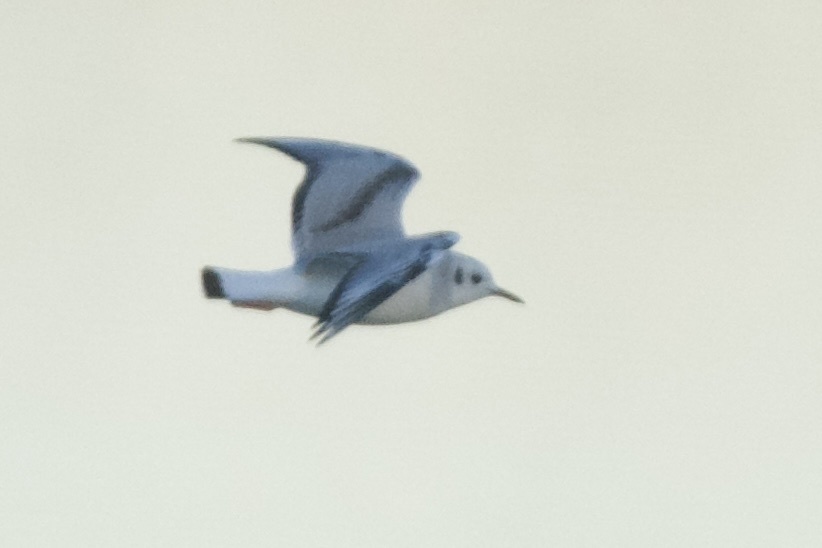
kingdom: Animalia
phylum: Chordata
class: Aves
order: Charadriiformes
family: Laridae
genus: Chroicocephalus
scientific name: Chroicocephalus philadelphia
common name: Bonaparte's gull
